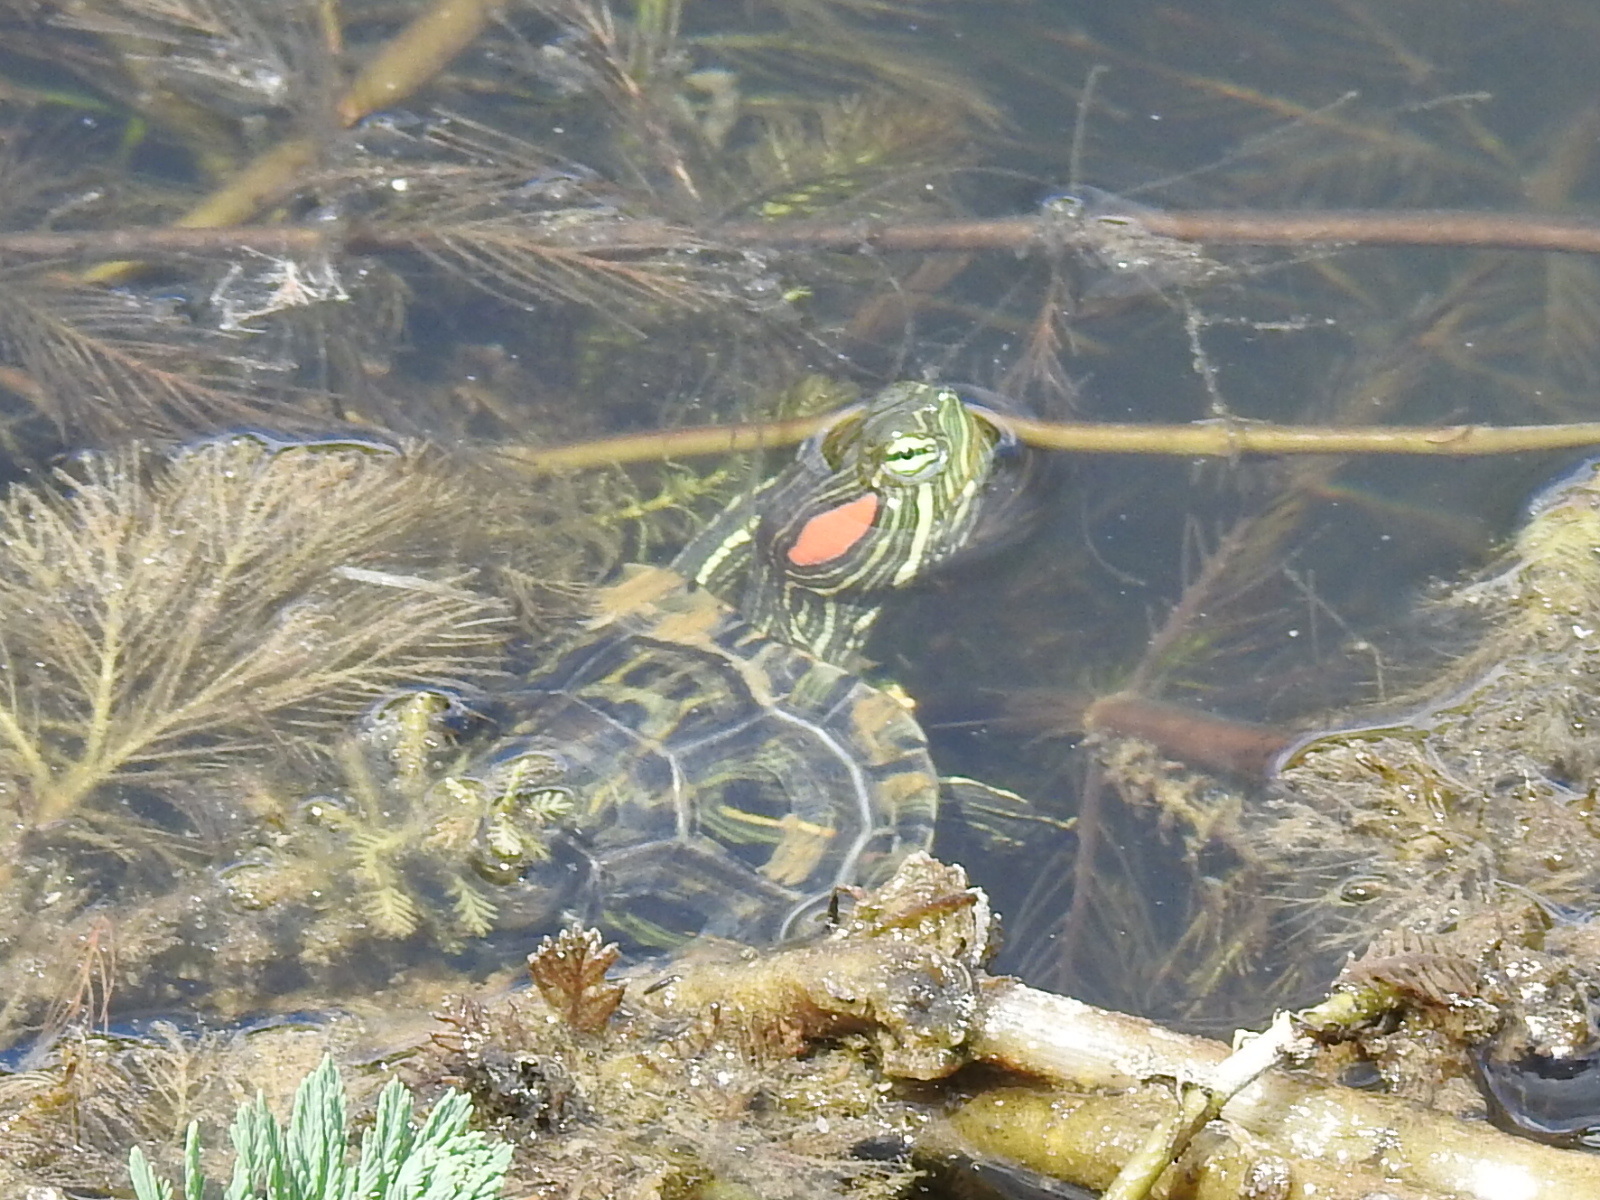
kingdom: Animalia
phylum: Chordata
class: Testudines
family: Emydidae
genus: Trachemys
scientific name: Trachemys scripta
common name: Slider
